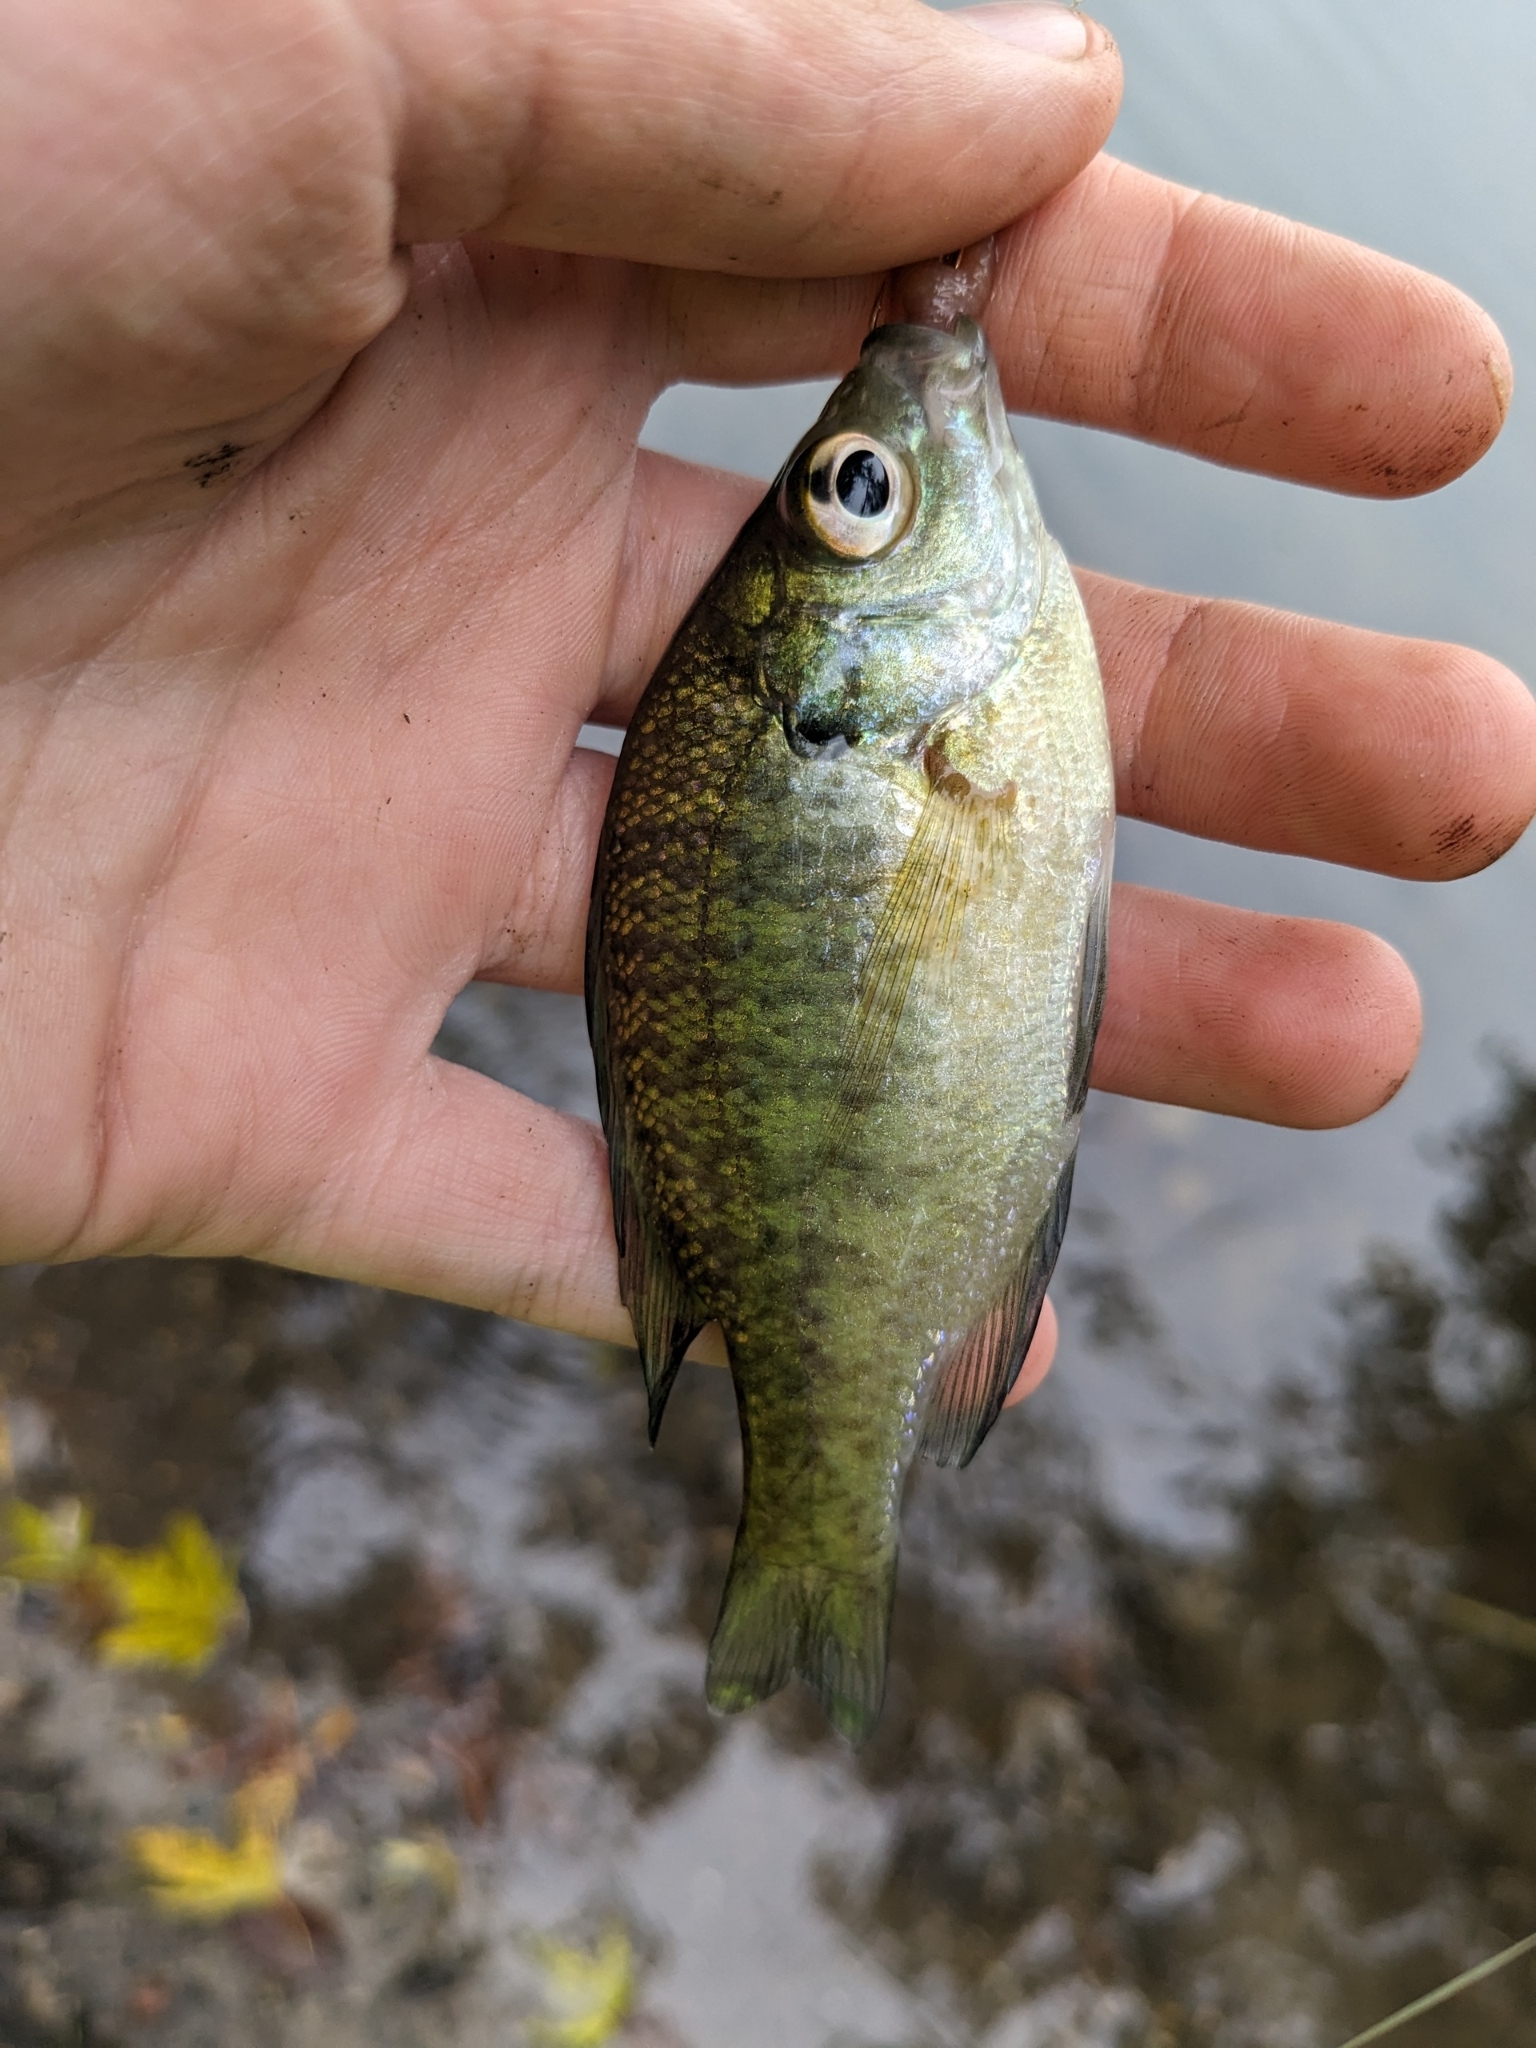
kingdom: Animalia
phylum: Chordata
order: Perciformes
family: Centrarchidae
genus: Lepomis
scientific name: Lepomis macrochirus
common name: Bluegill
